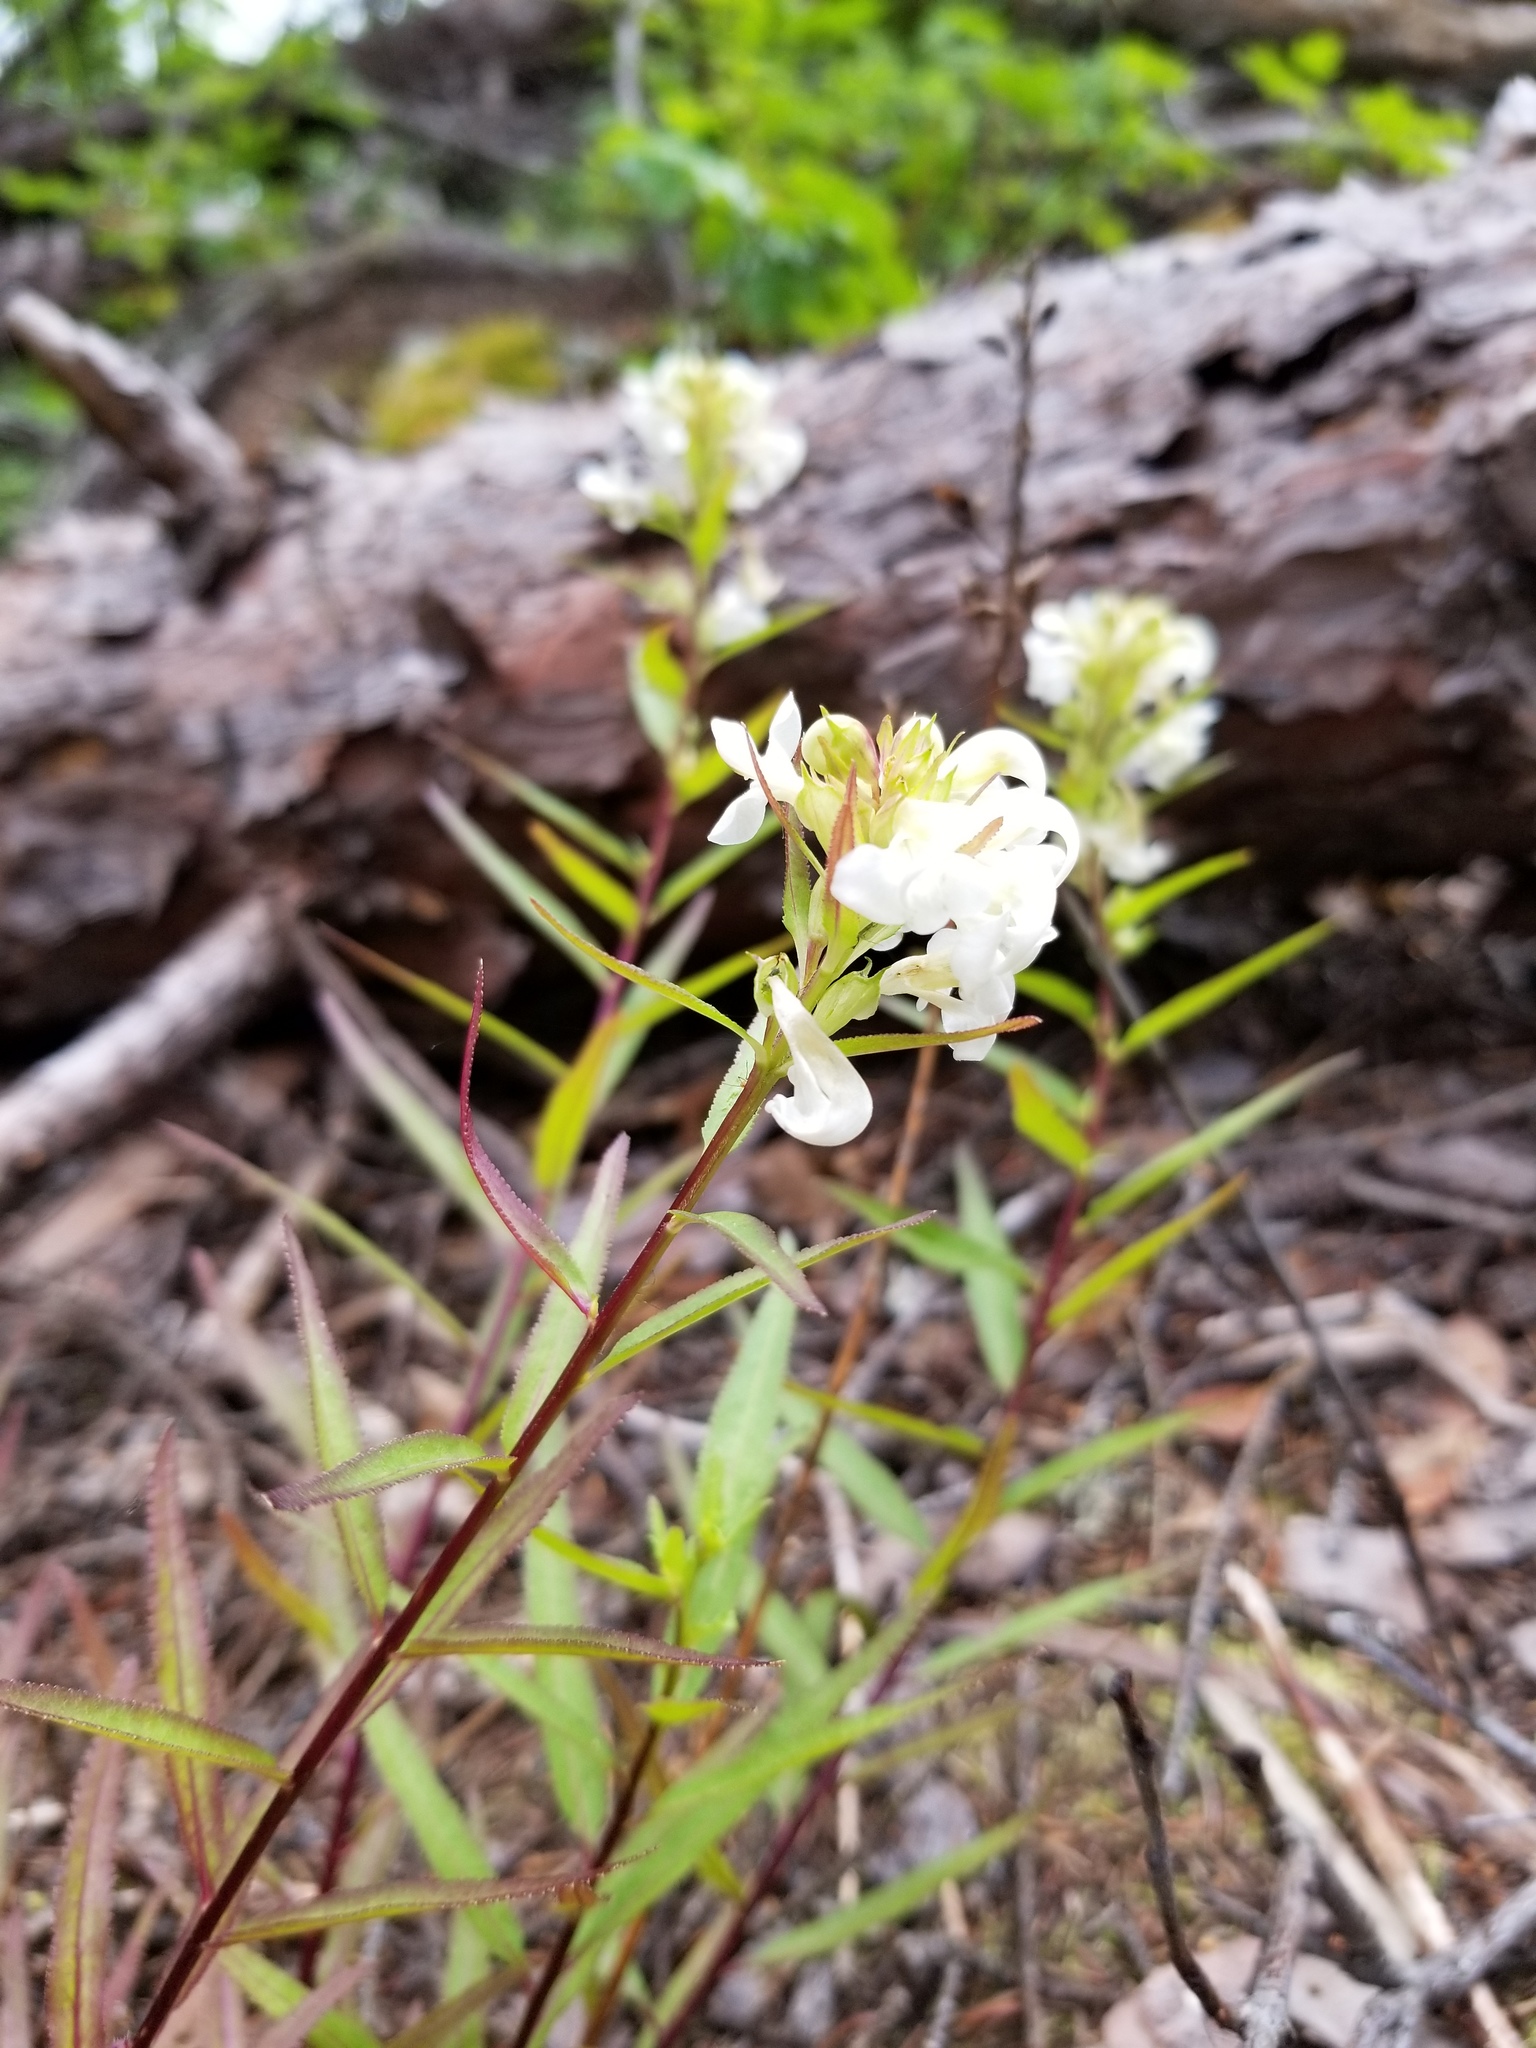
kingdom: Plantae
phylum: Tracheophyta
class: Magnoliopsida
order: Lamiales
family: Orobanchaceae
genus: Pedicularis
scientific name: Pedicularis racemosa
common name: Leafy lousewort
